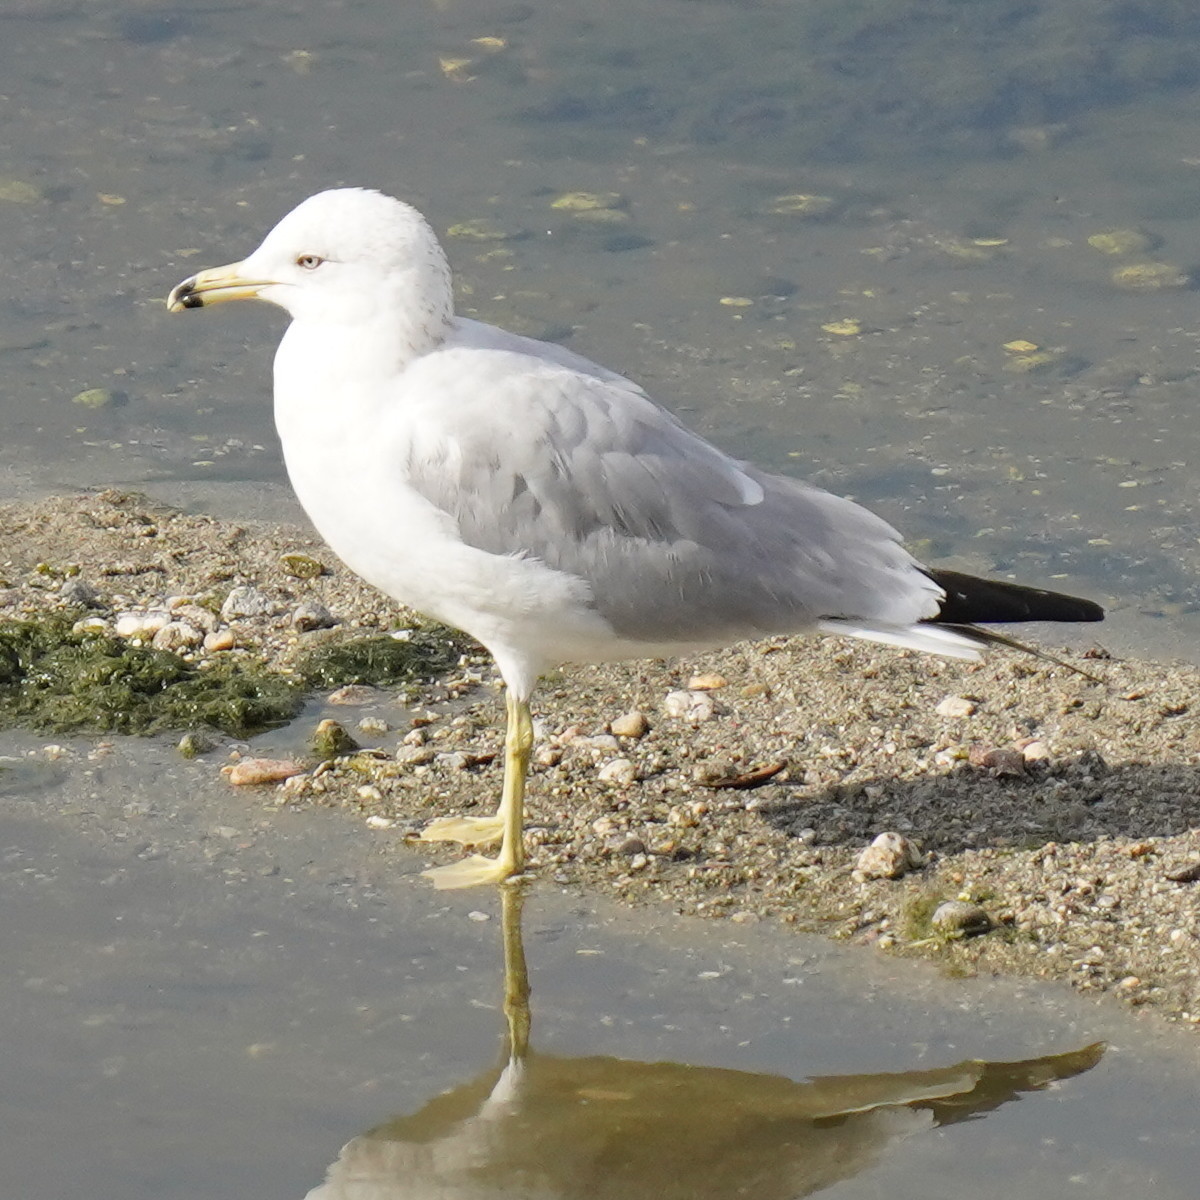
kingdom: Animalia
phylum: Chordata
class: Aves
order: Charadriiformes
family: Laridae
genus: Larus
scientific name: Larus delawarensis
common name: Ring-billed gull
